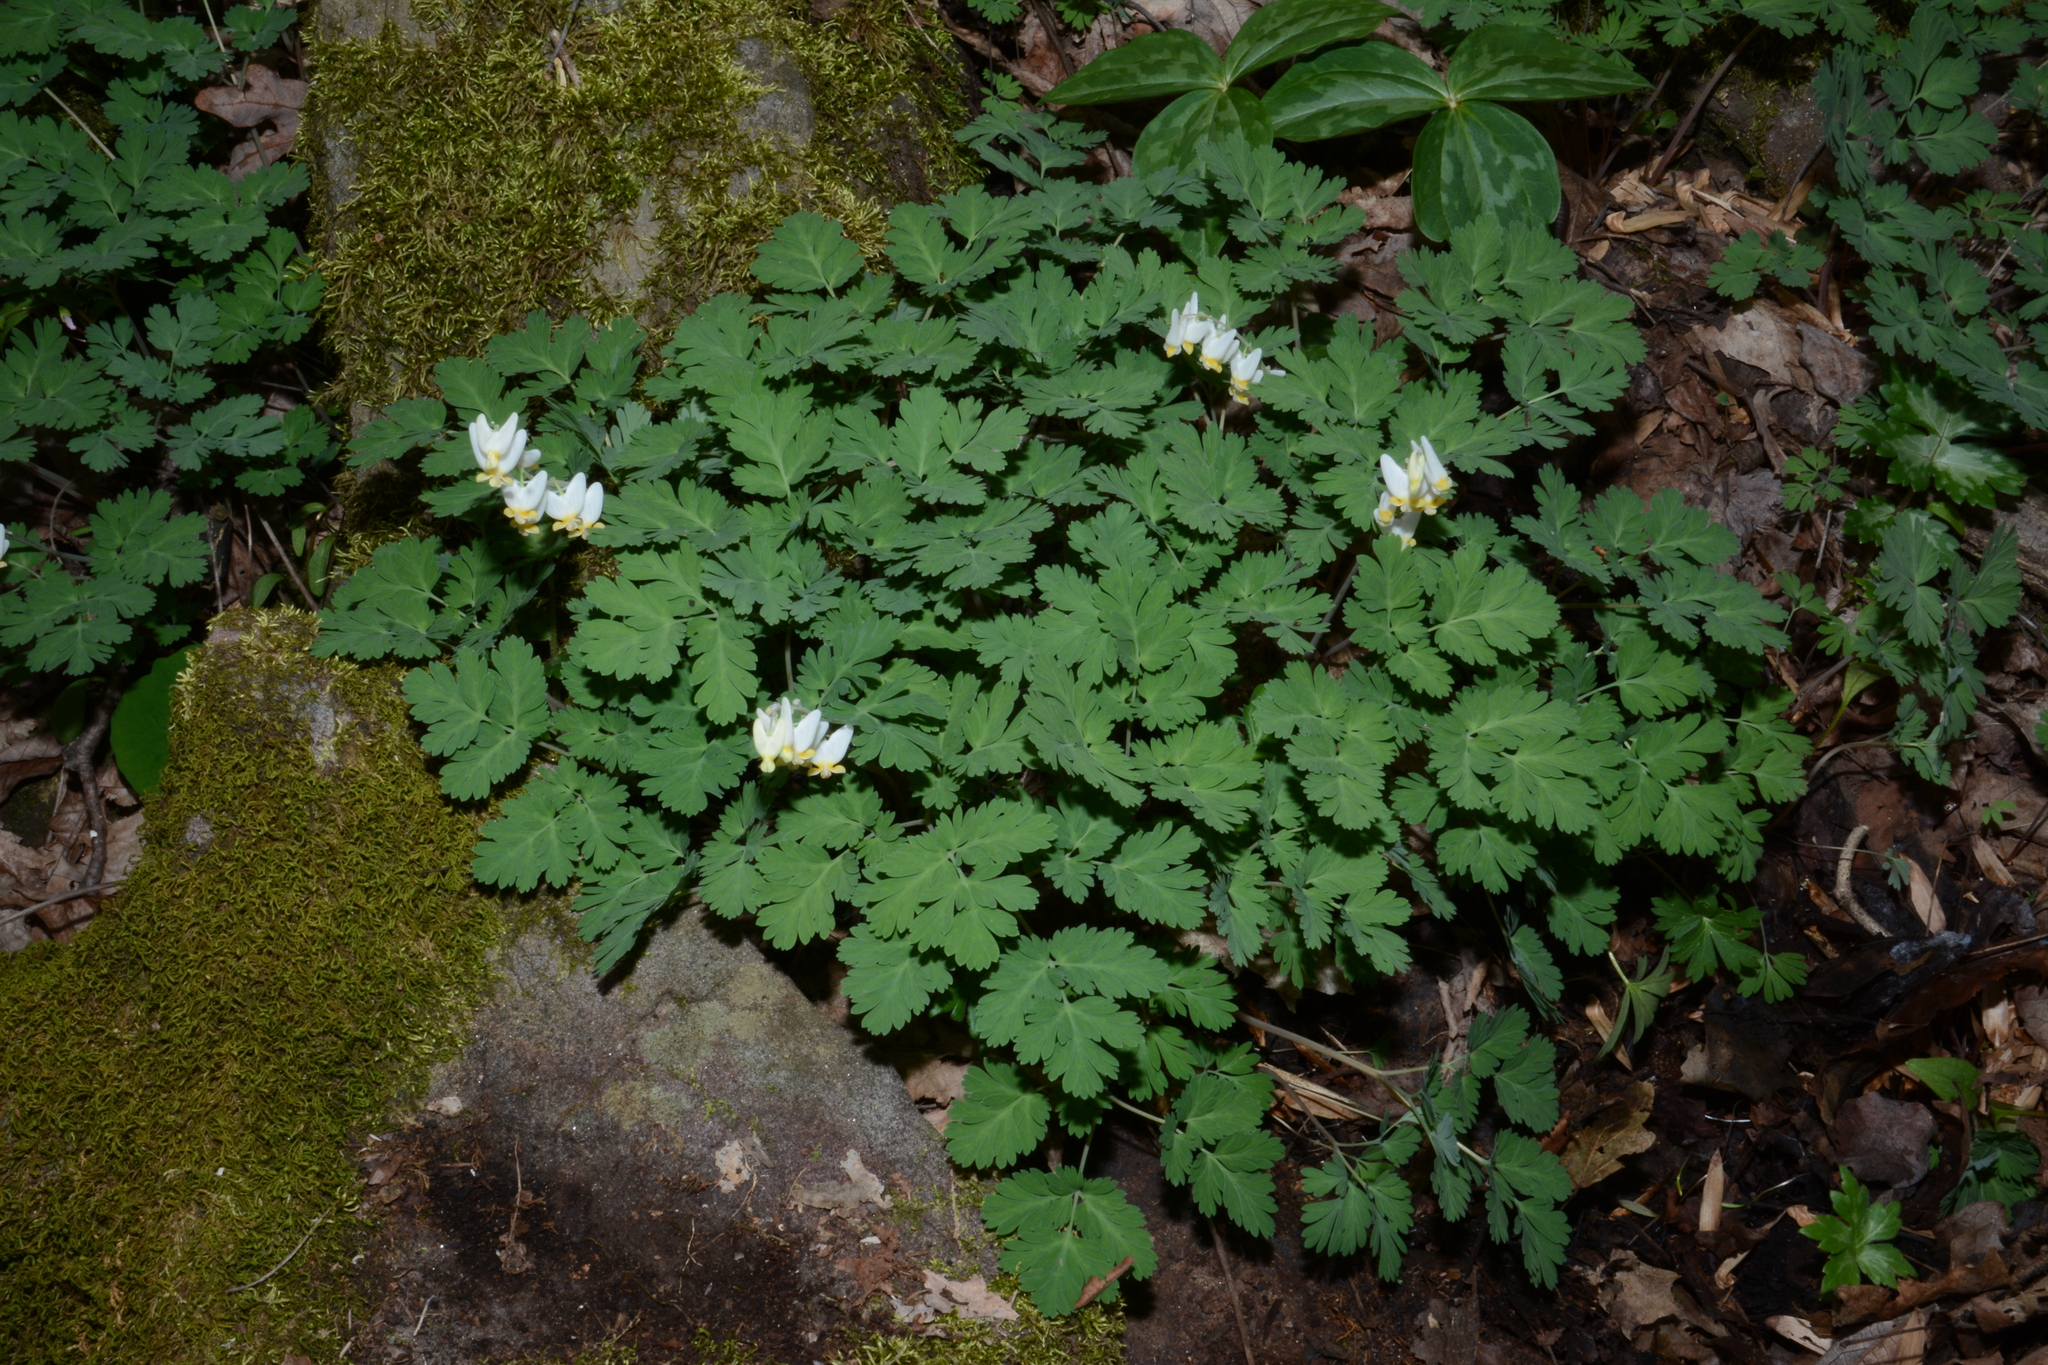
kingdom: Plantae
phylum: Tracheophyta
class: Magnoliopsida
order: Ranunculales
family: Papaveraceae
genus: Dicentra
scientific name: Dicentra cucullaria
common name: Dutchman's breeches
